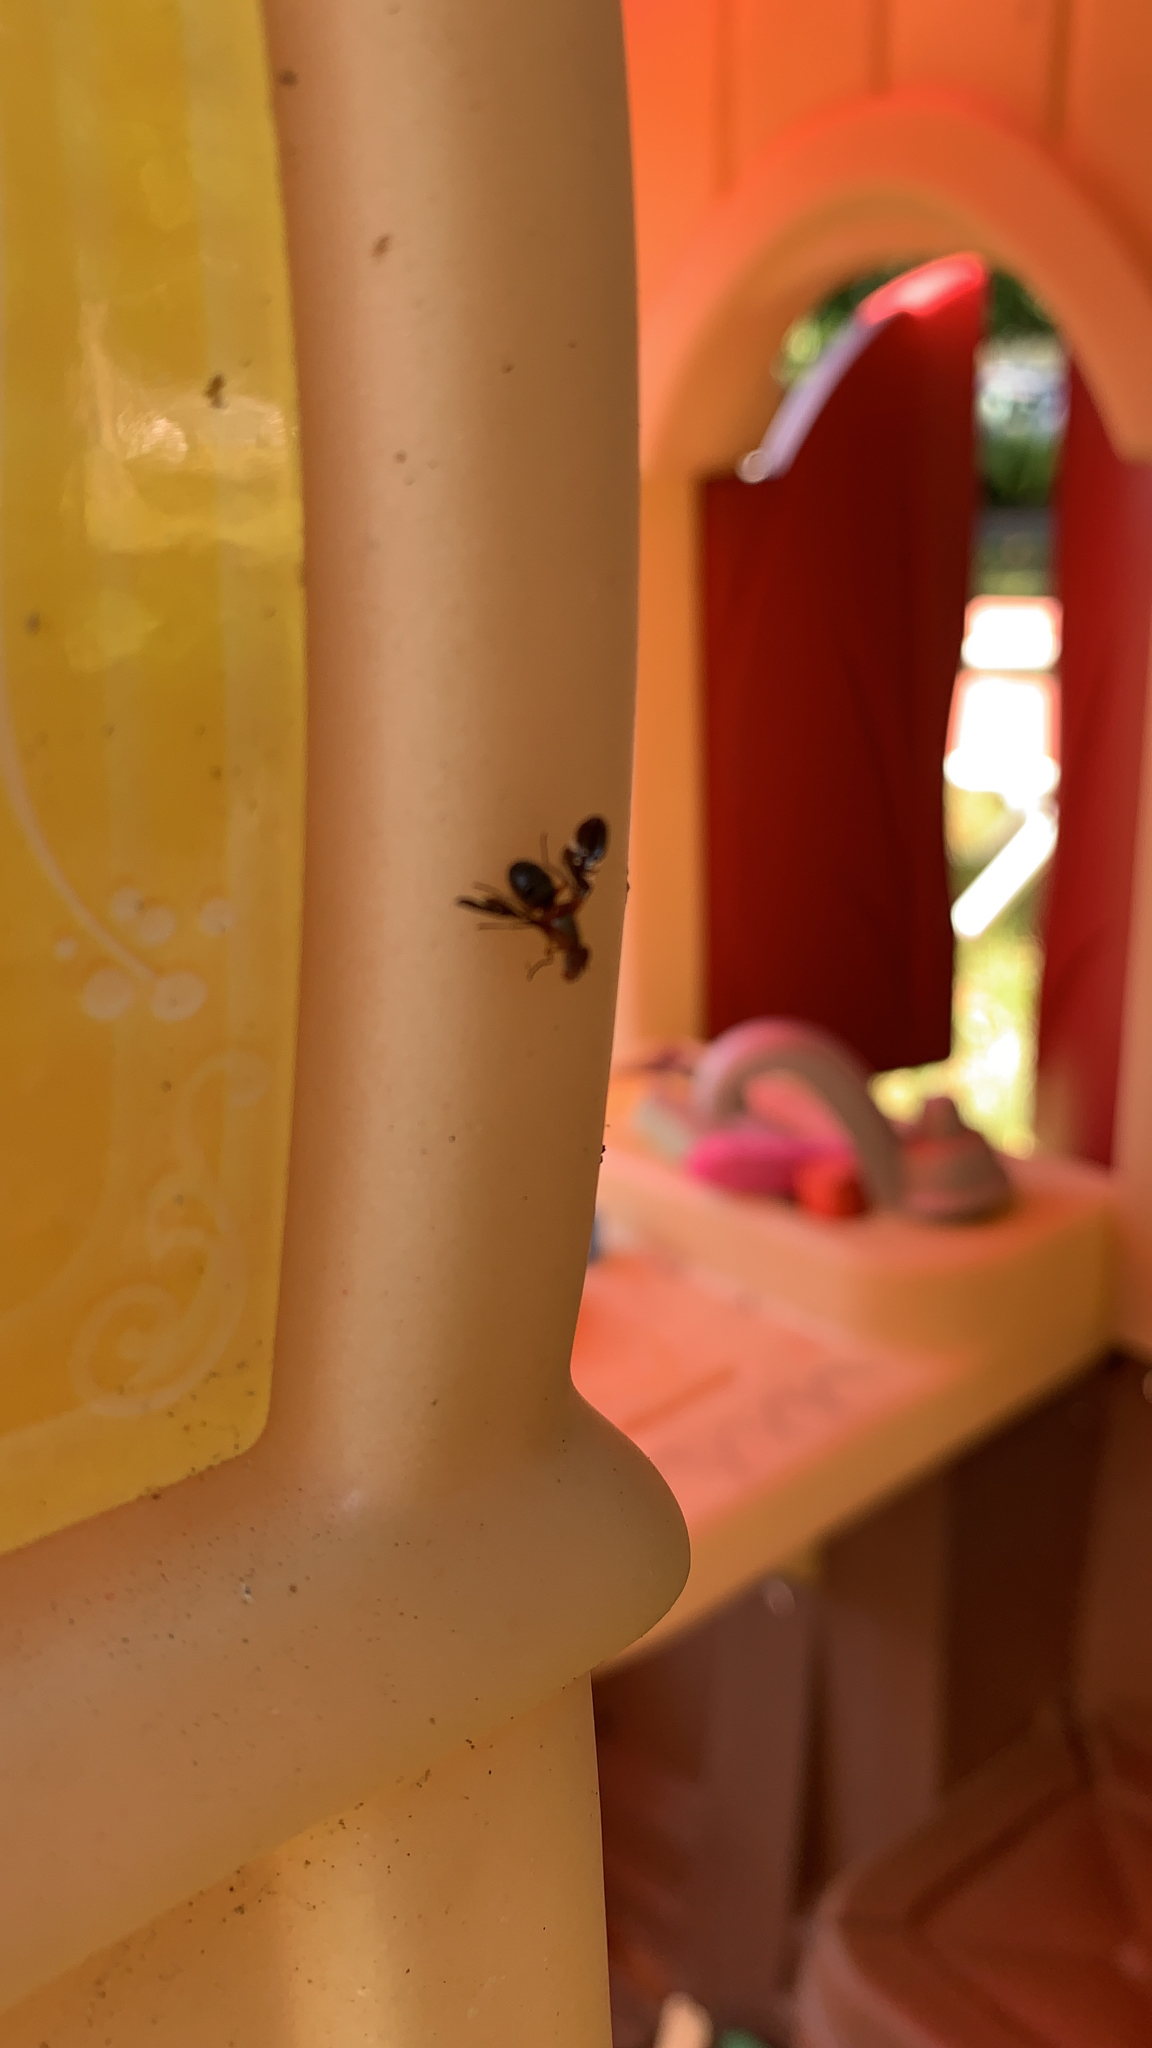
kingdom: Animalia
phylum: Arthropoda
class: Insecta
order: Diptera
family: Ulidiidae
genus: Delphinia
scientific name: Delphinia picta
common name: Common picture-winged fly
